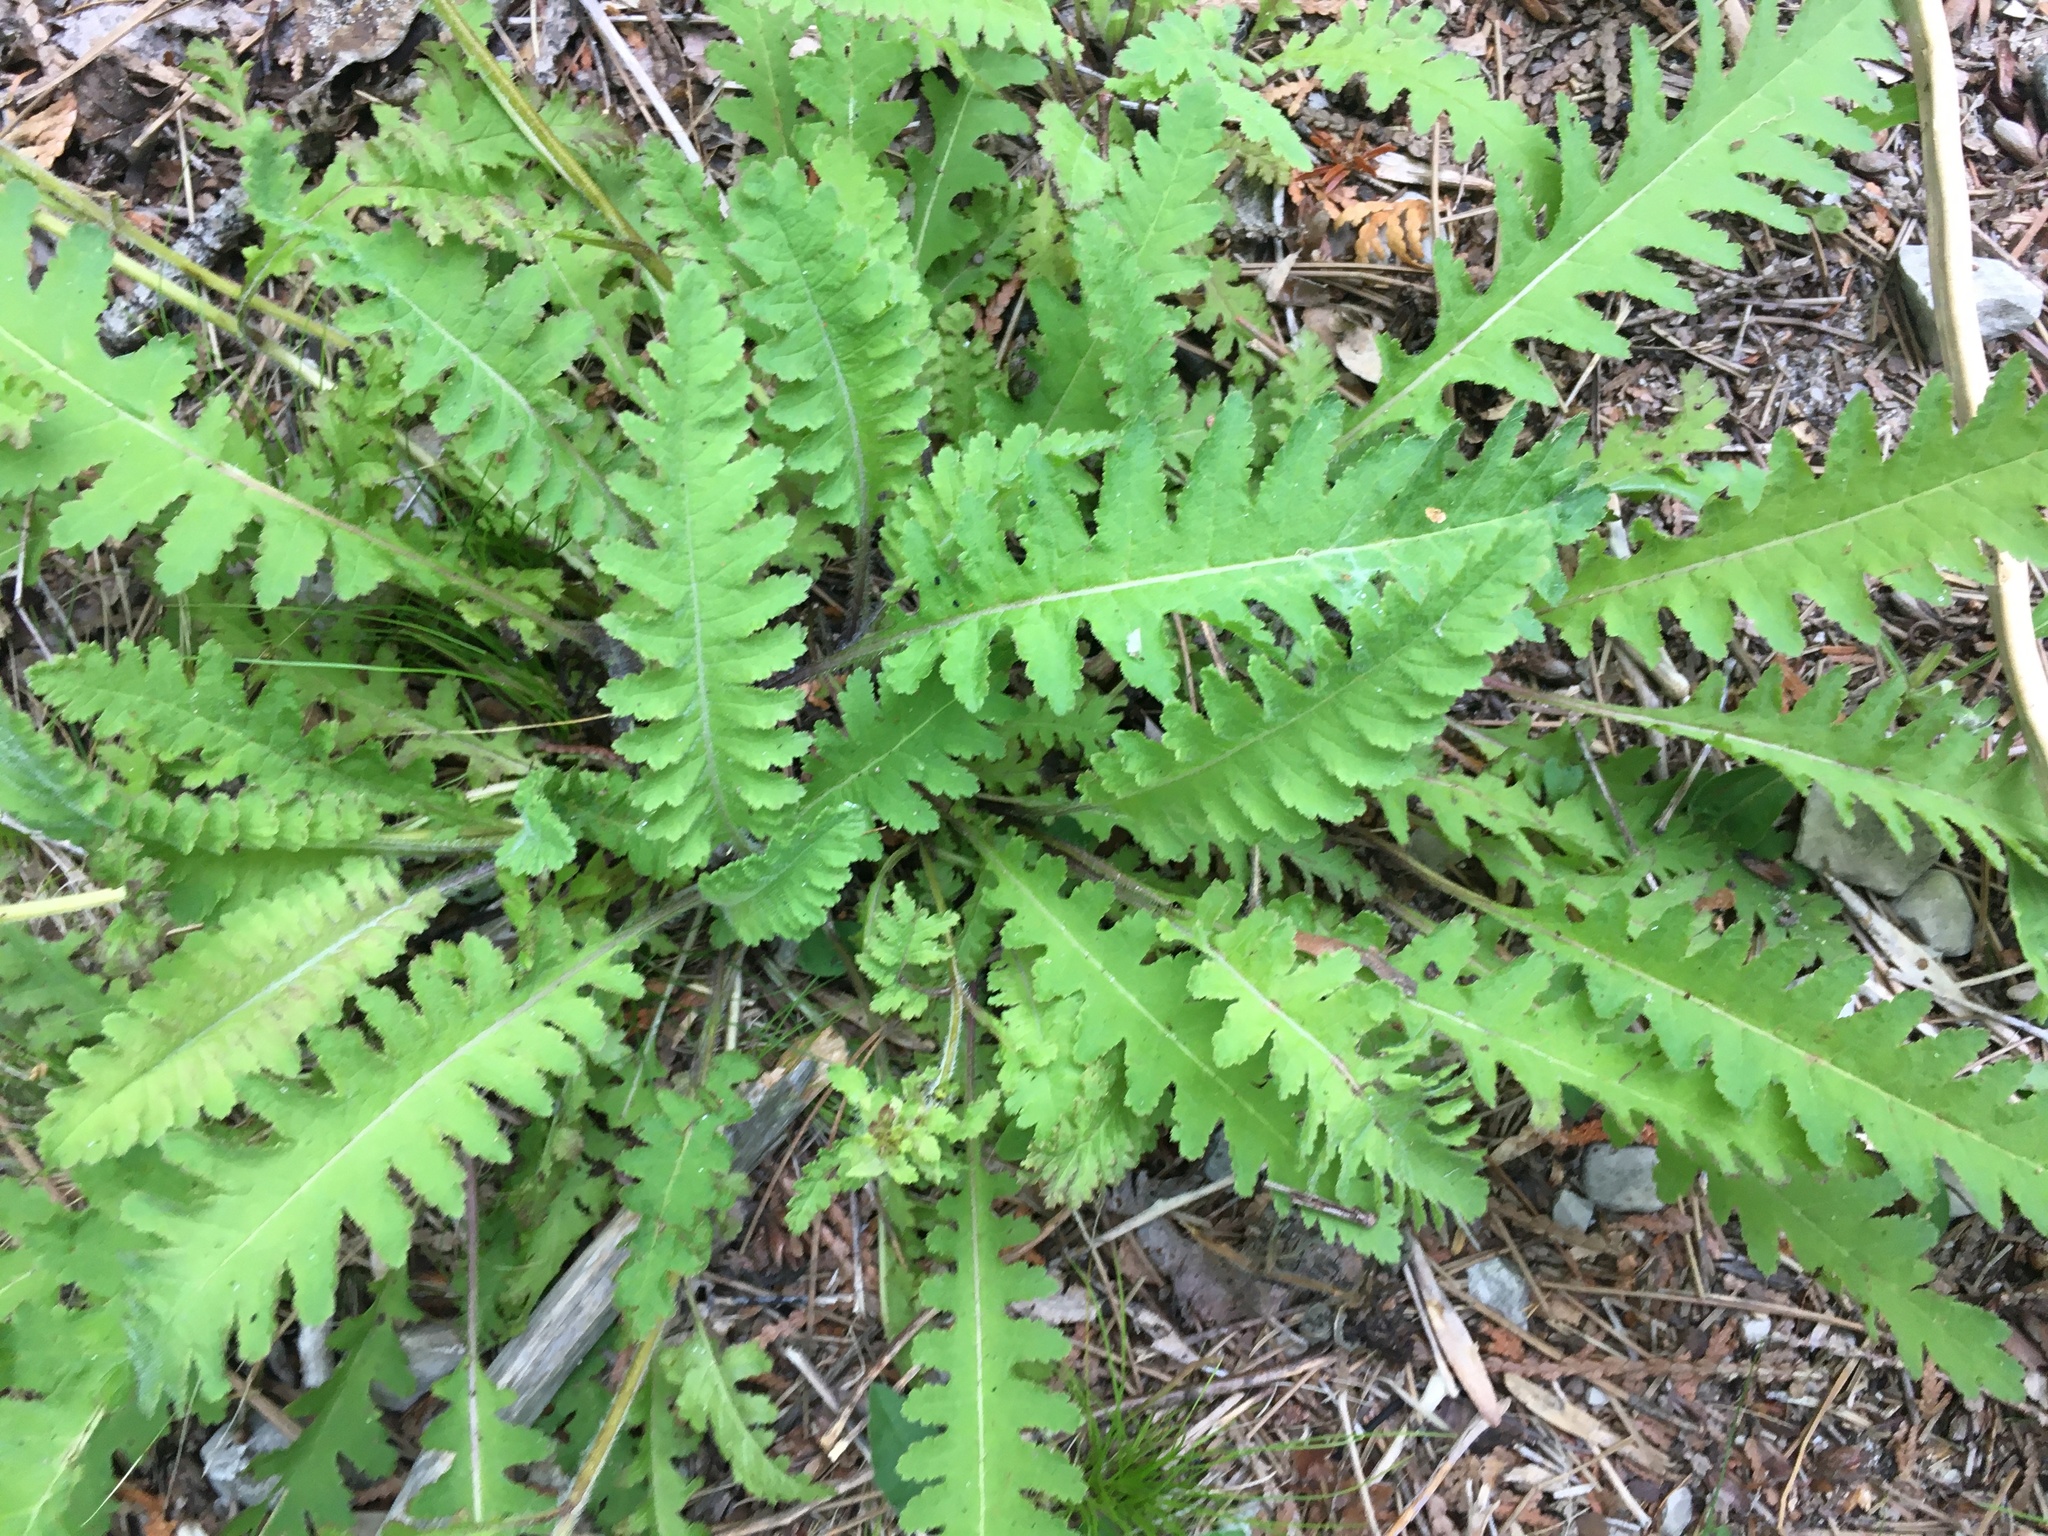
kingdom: Plantae
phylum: Tracheophyta
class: Magnoliopsida
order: Lamiales
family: Orobanchaceae
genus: Pedicularis
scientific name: Pedicularis canadensis
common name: Early lousewort
